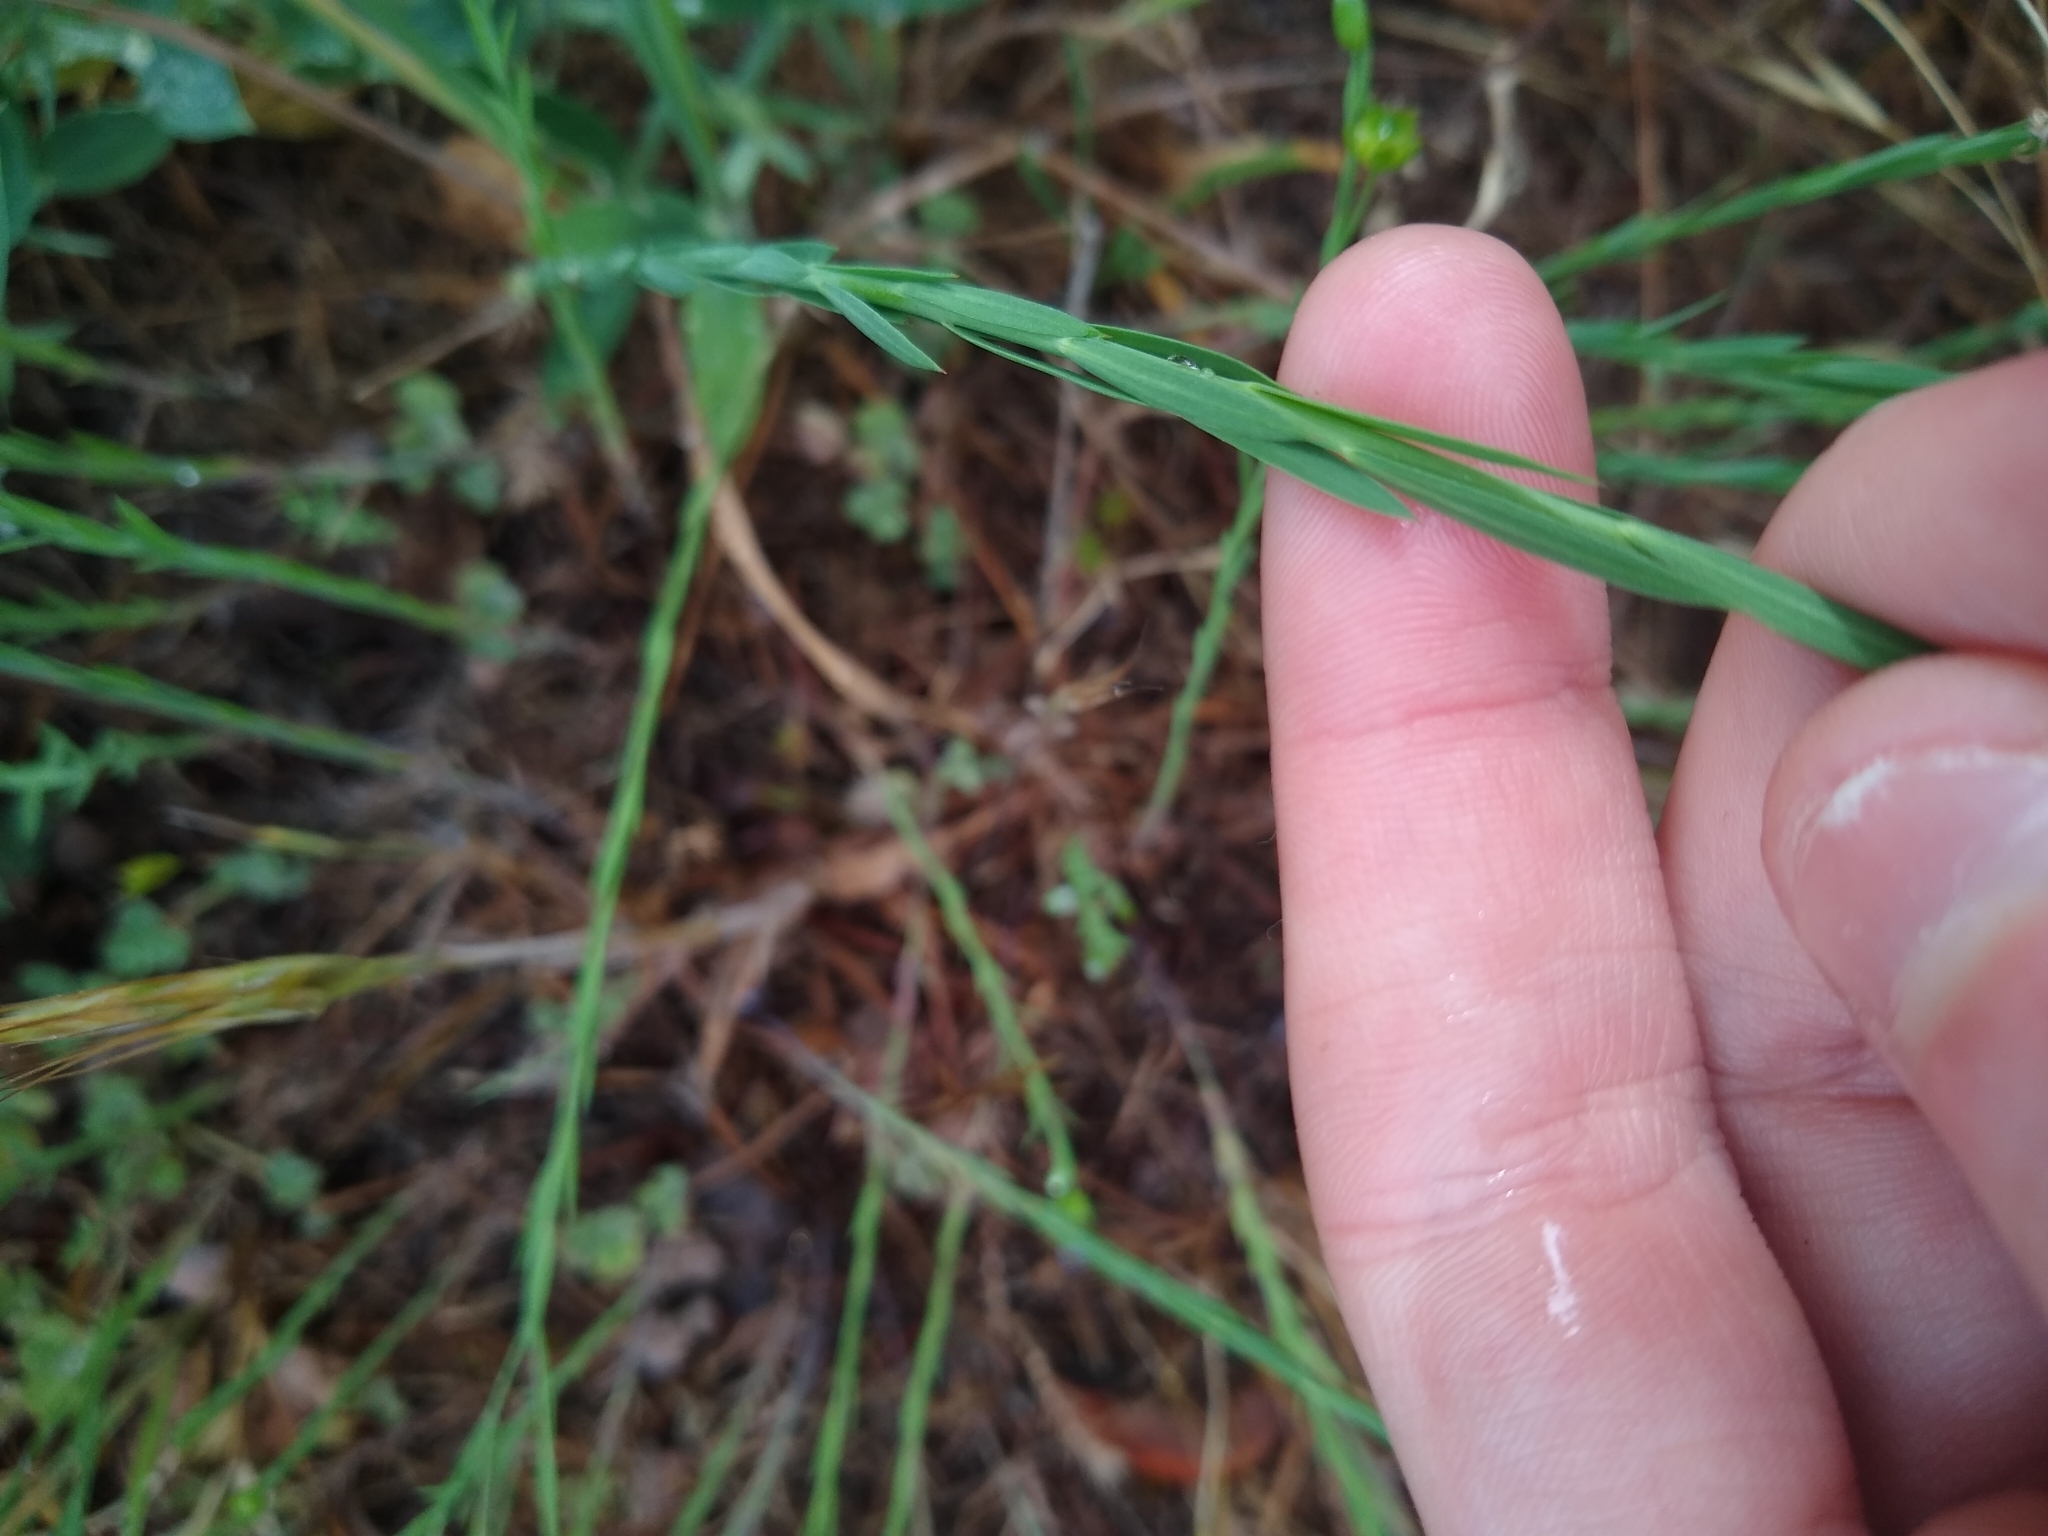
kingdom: Plantae
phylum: Tracheophyta
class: Magnoliopsida
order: Malpighiales
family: Linaceae
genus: Linum
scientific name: Linum bienne
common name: Pale flax
